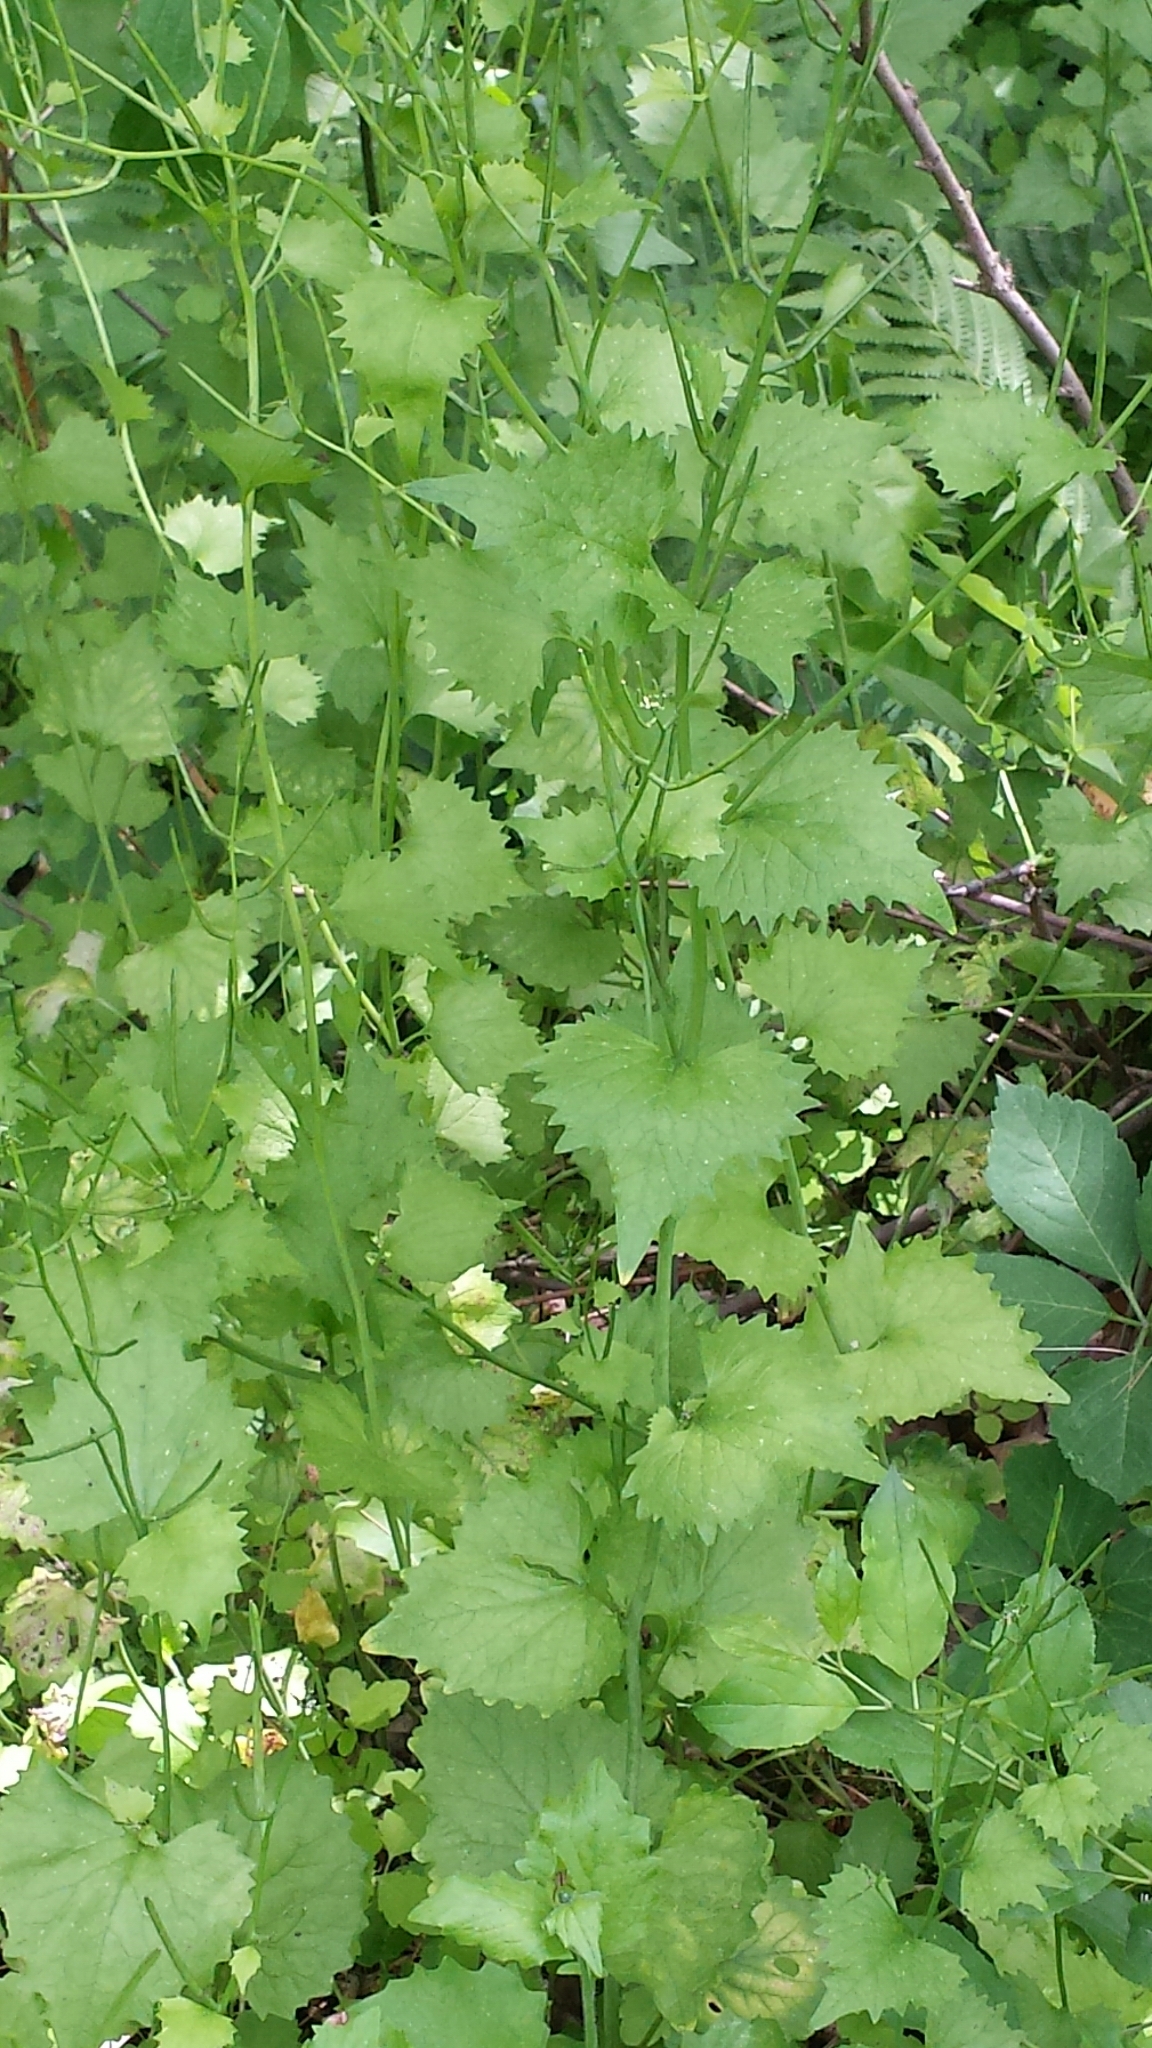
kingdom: Plantae
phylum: Tracheophyta
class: Magnoliopsida
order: Brassicales
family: Brassicaceae
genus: Alliaria
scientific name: Alliaria petiolata
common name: Garlic mustard
